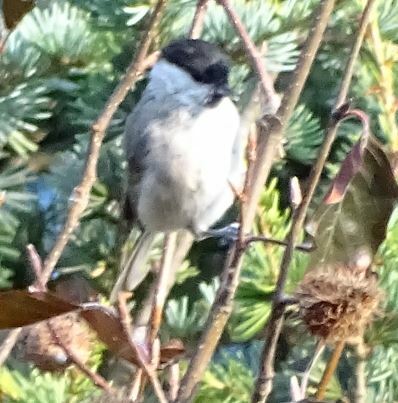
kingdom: Animalia
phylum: Chordata
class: Aves
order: Passeriformes
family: Paridae
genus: Poecile
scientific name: Poecile palustris
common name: Marsh tit
